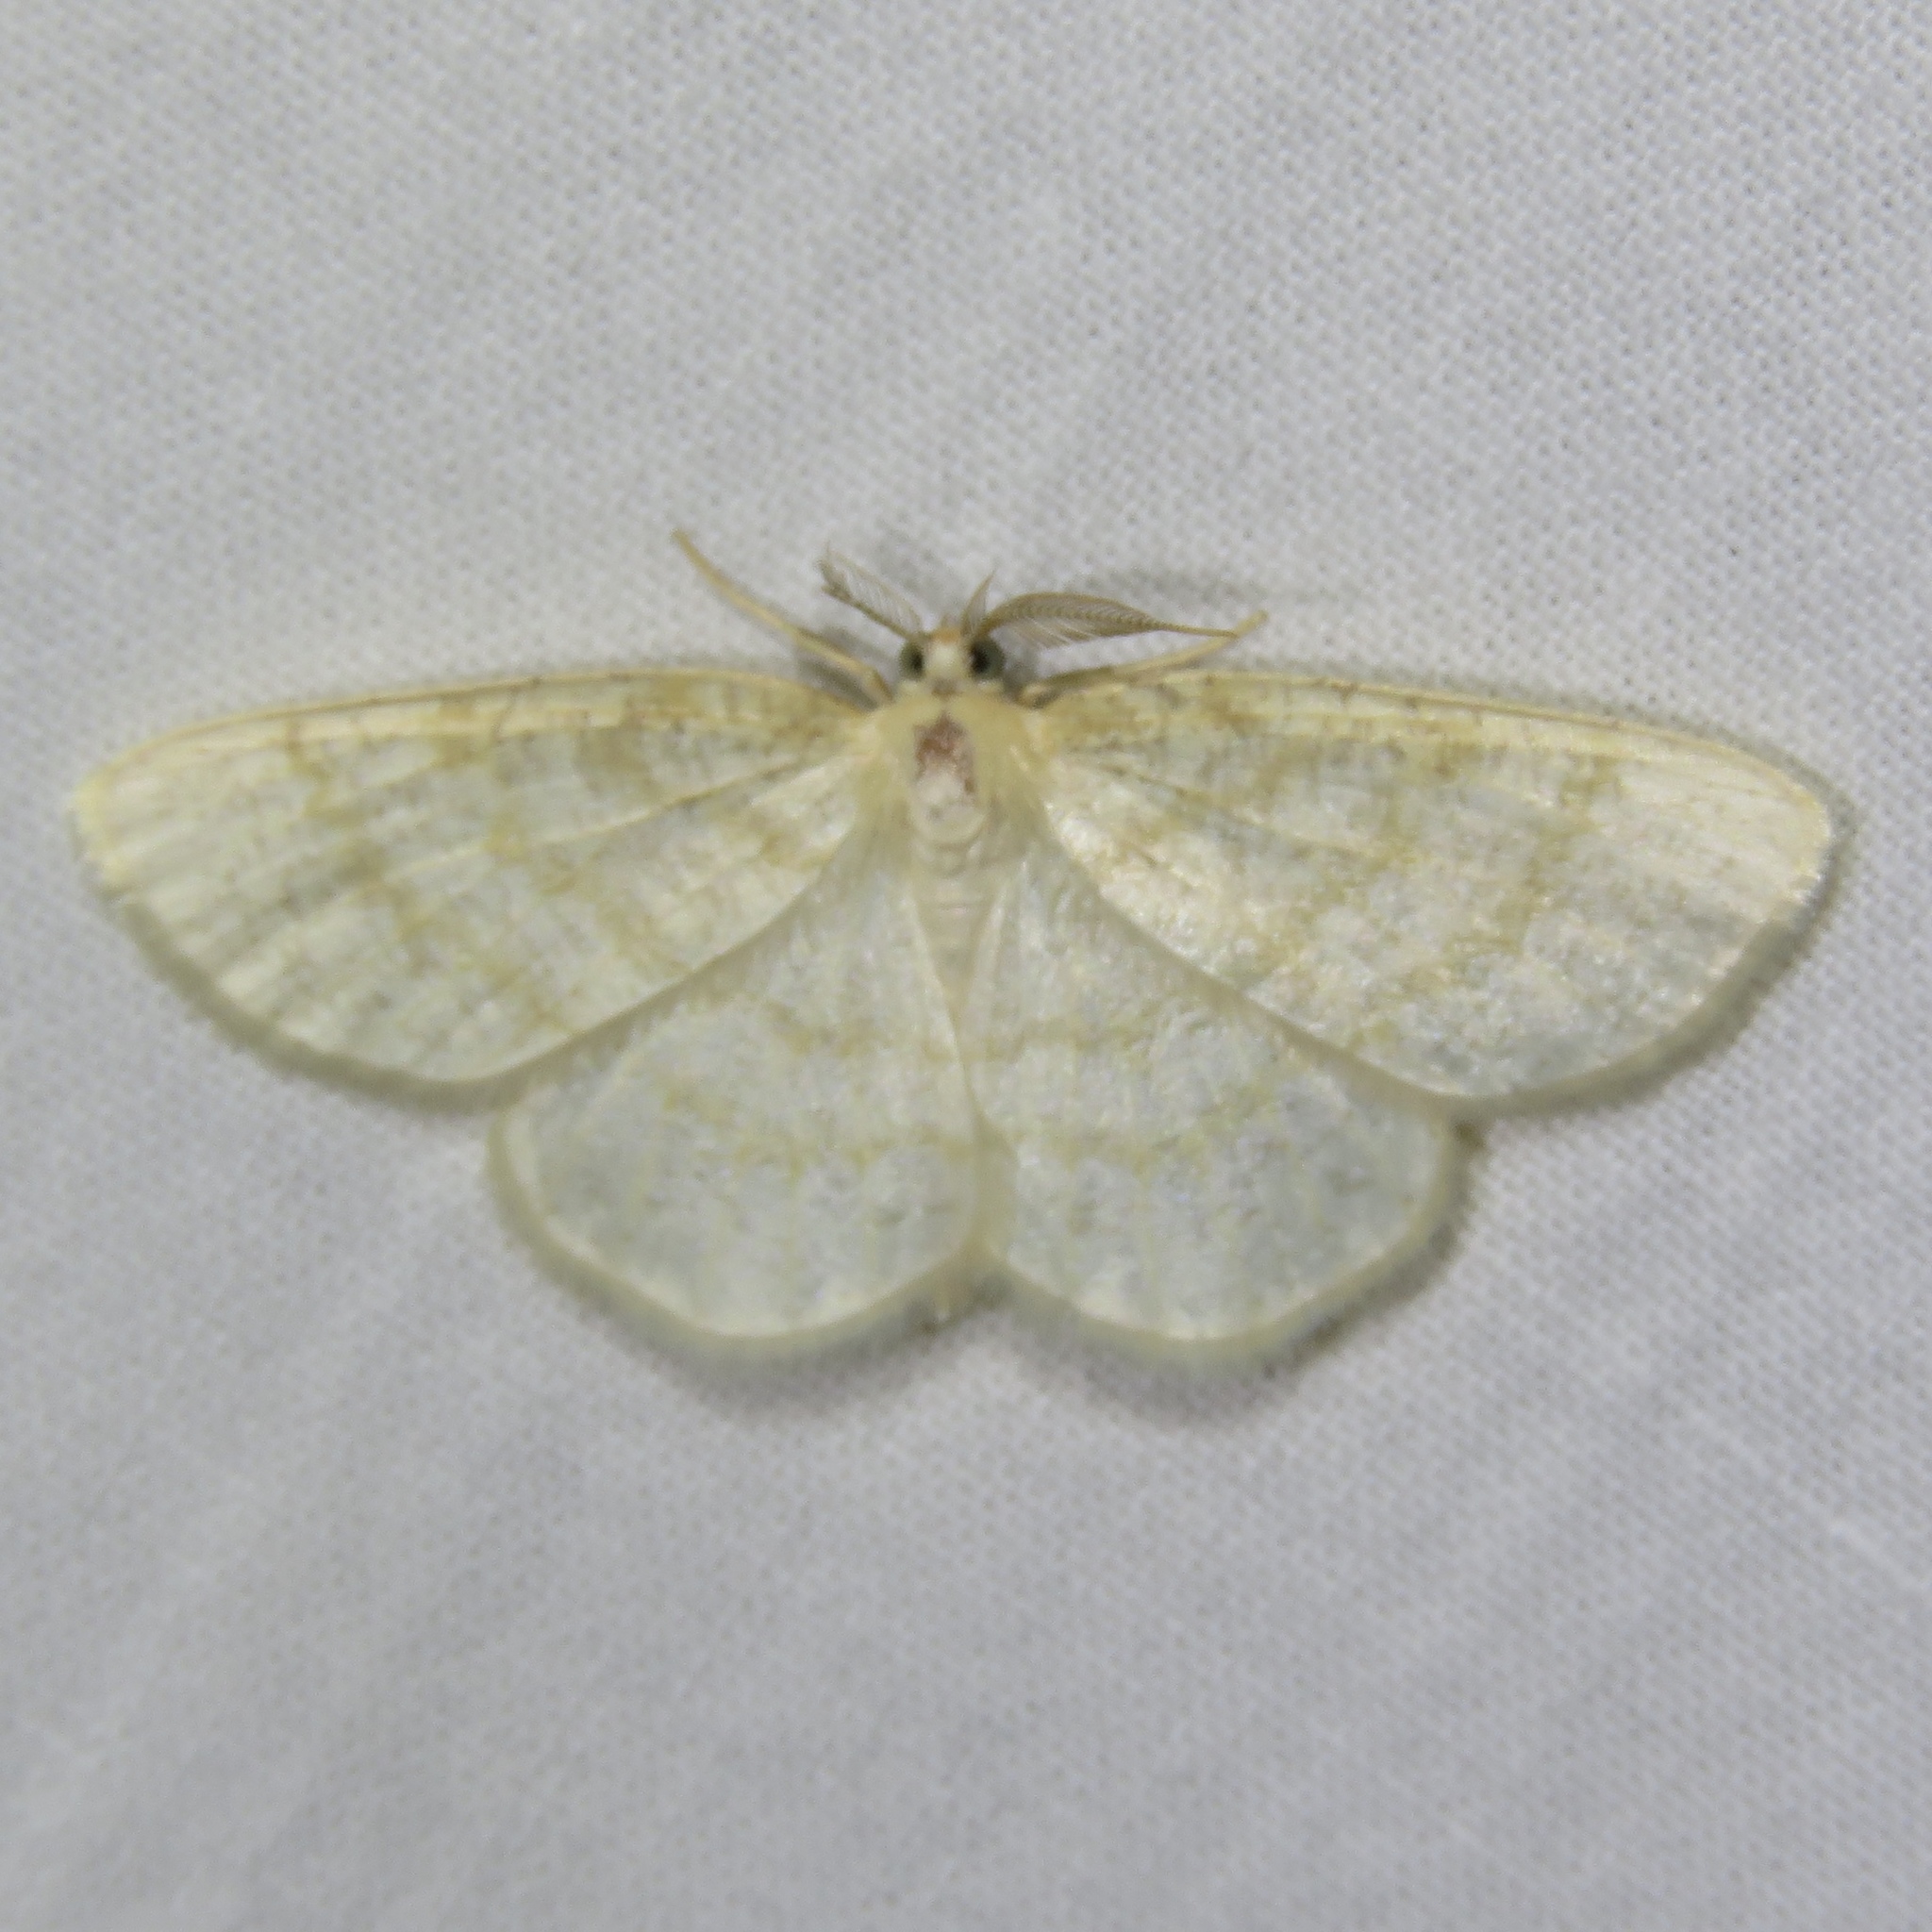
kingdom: Animalia
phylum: Arthropoda
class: Insecta
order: Lepidoptera
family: Geometridae
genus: Cabera
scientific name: Cabera erythemaria
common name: Yellow-dusted cream moth
